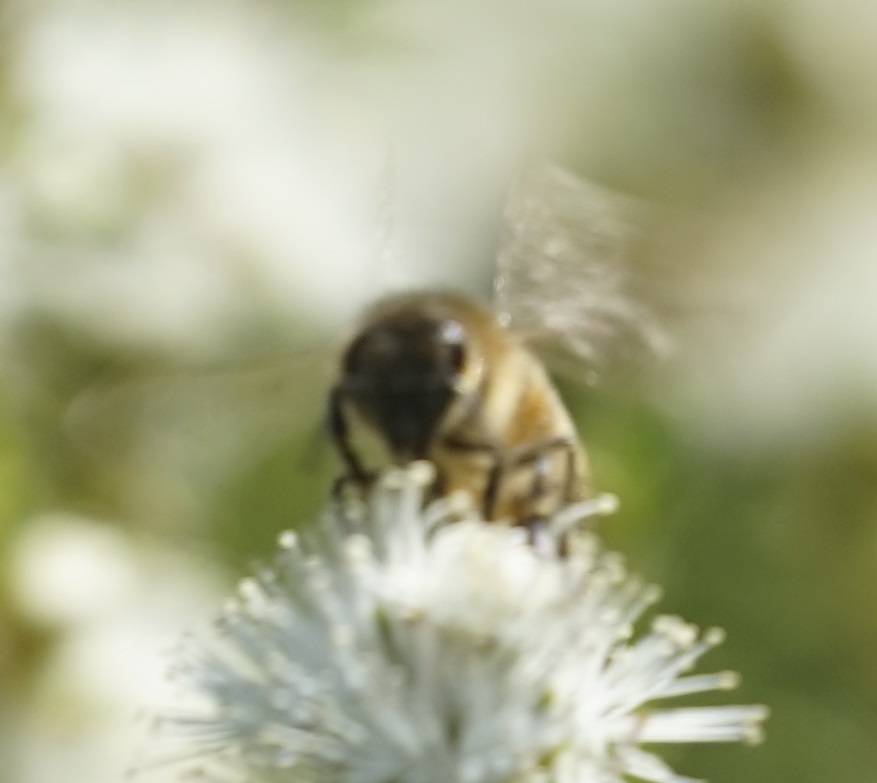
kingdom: Animalia
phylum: Arthropoda
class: Insecta
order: Hymenoptera
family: Apidae
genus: Apis
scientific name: Apis mellifera
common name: Honey bee
